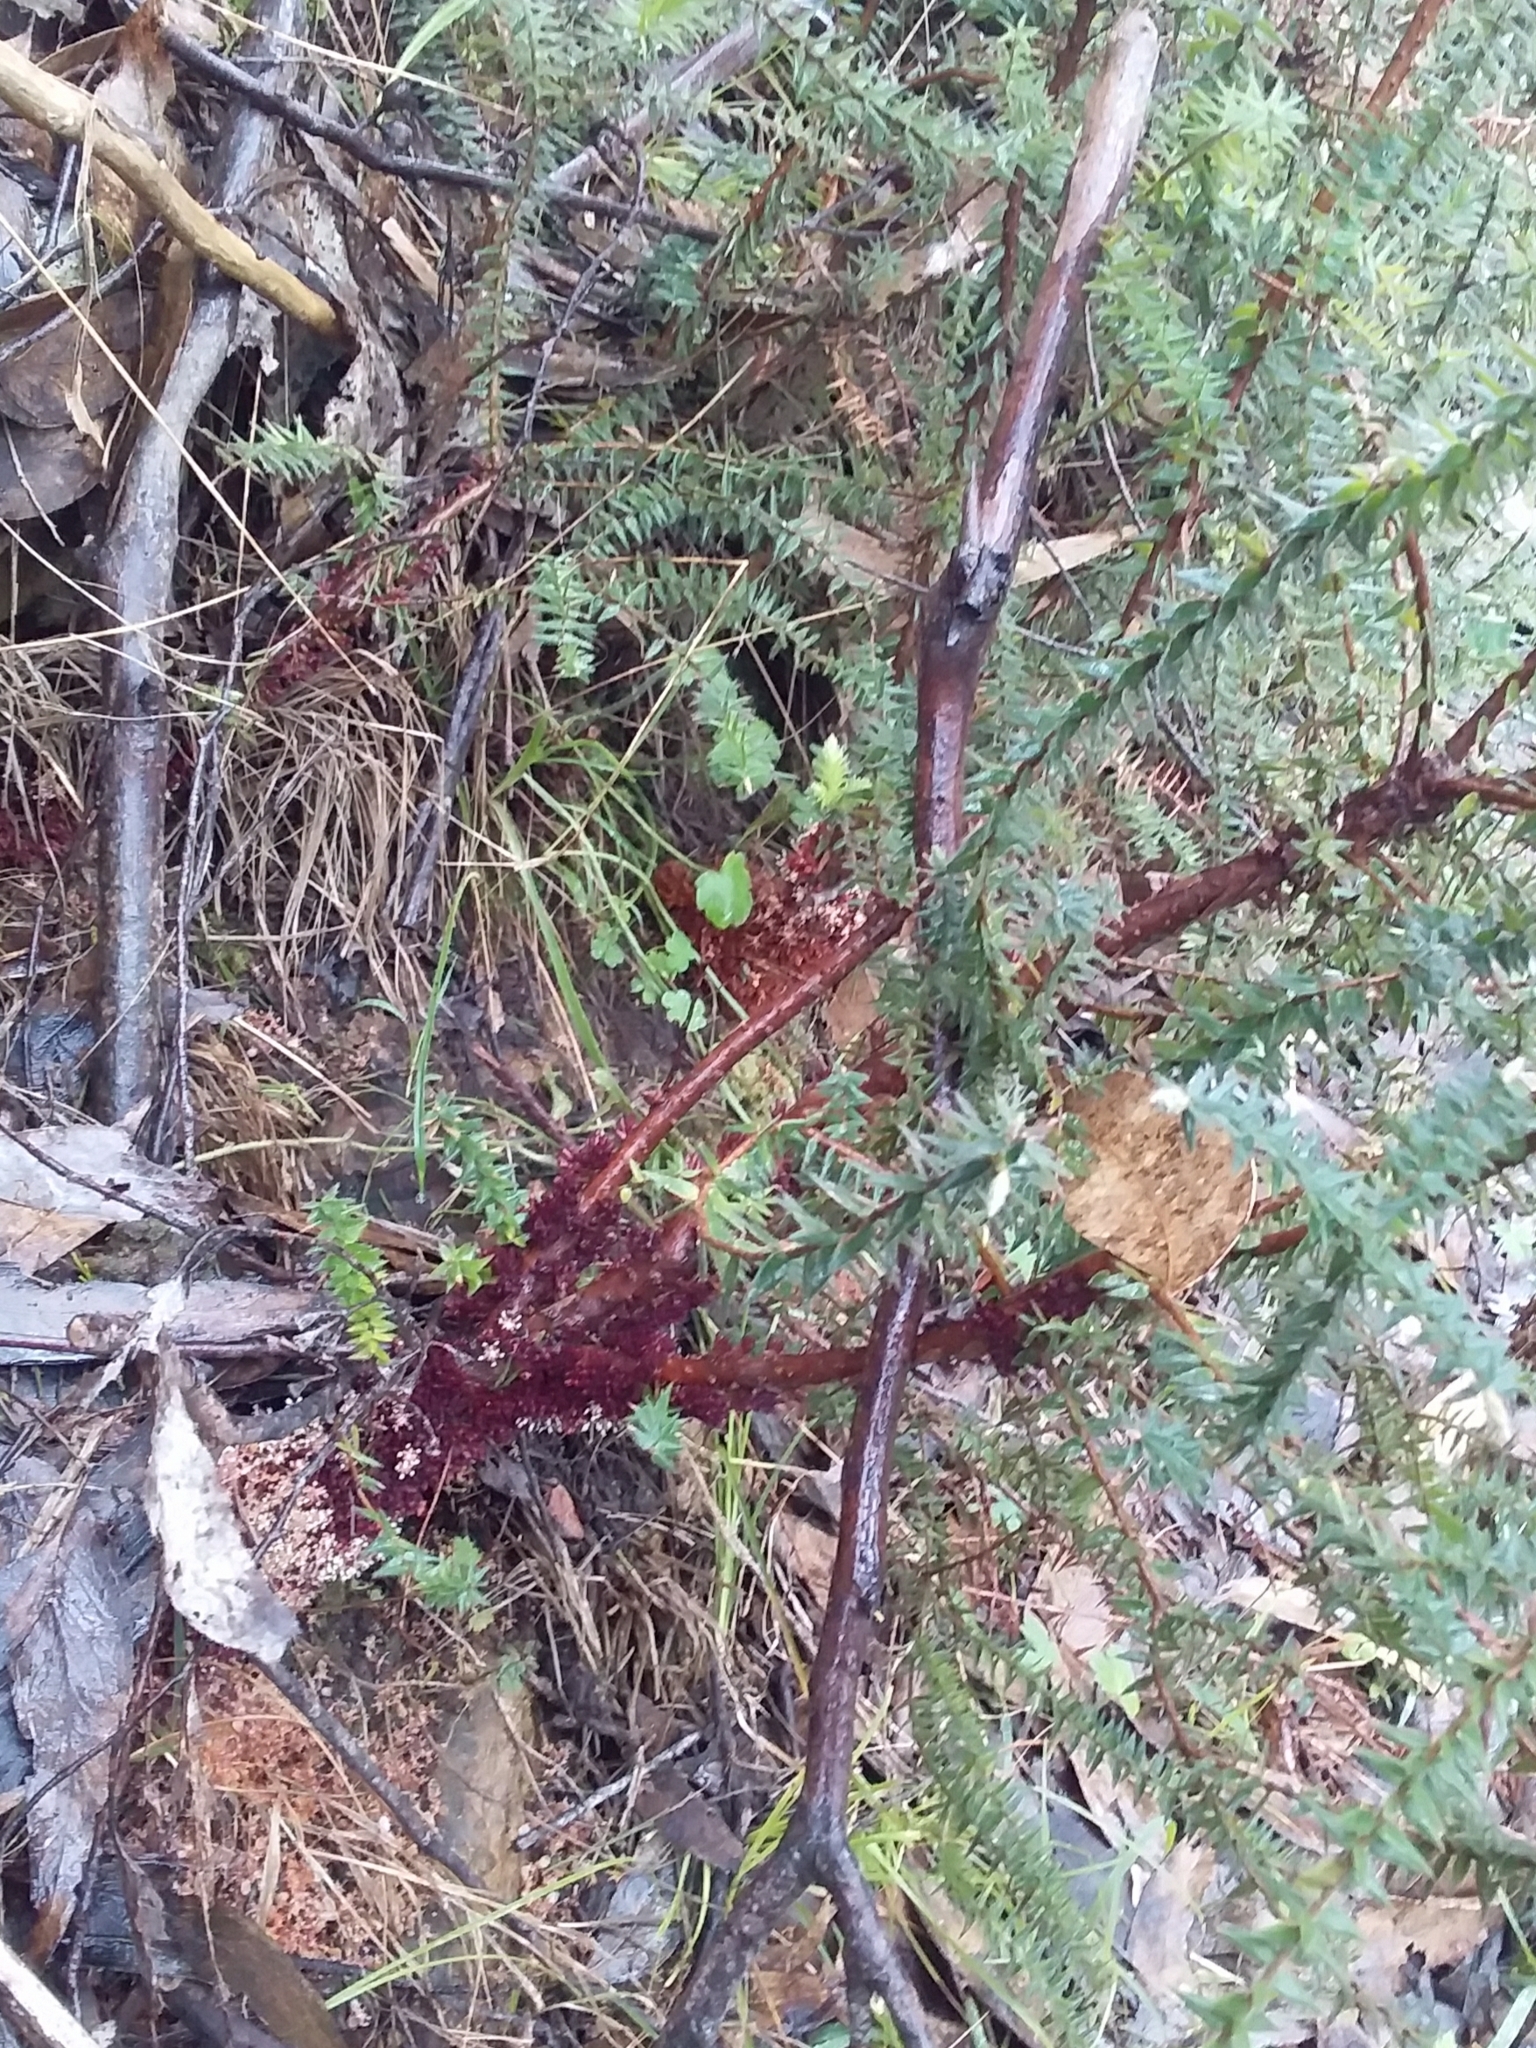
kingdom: Plantae
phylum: Tracheophyta
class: Magnoliopsida
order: Ericales
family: Ericaceae
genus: Acrotriche
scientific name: Acrotriche fasciculiflora
